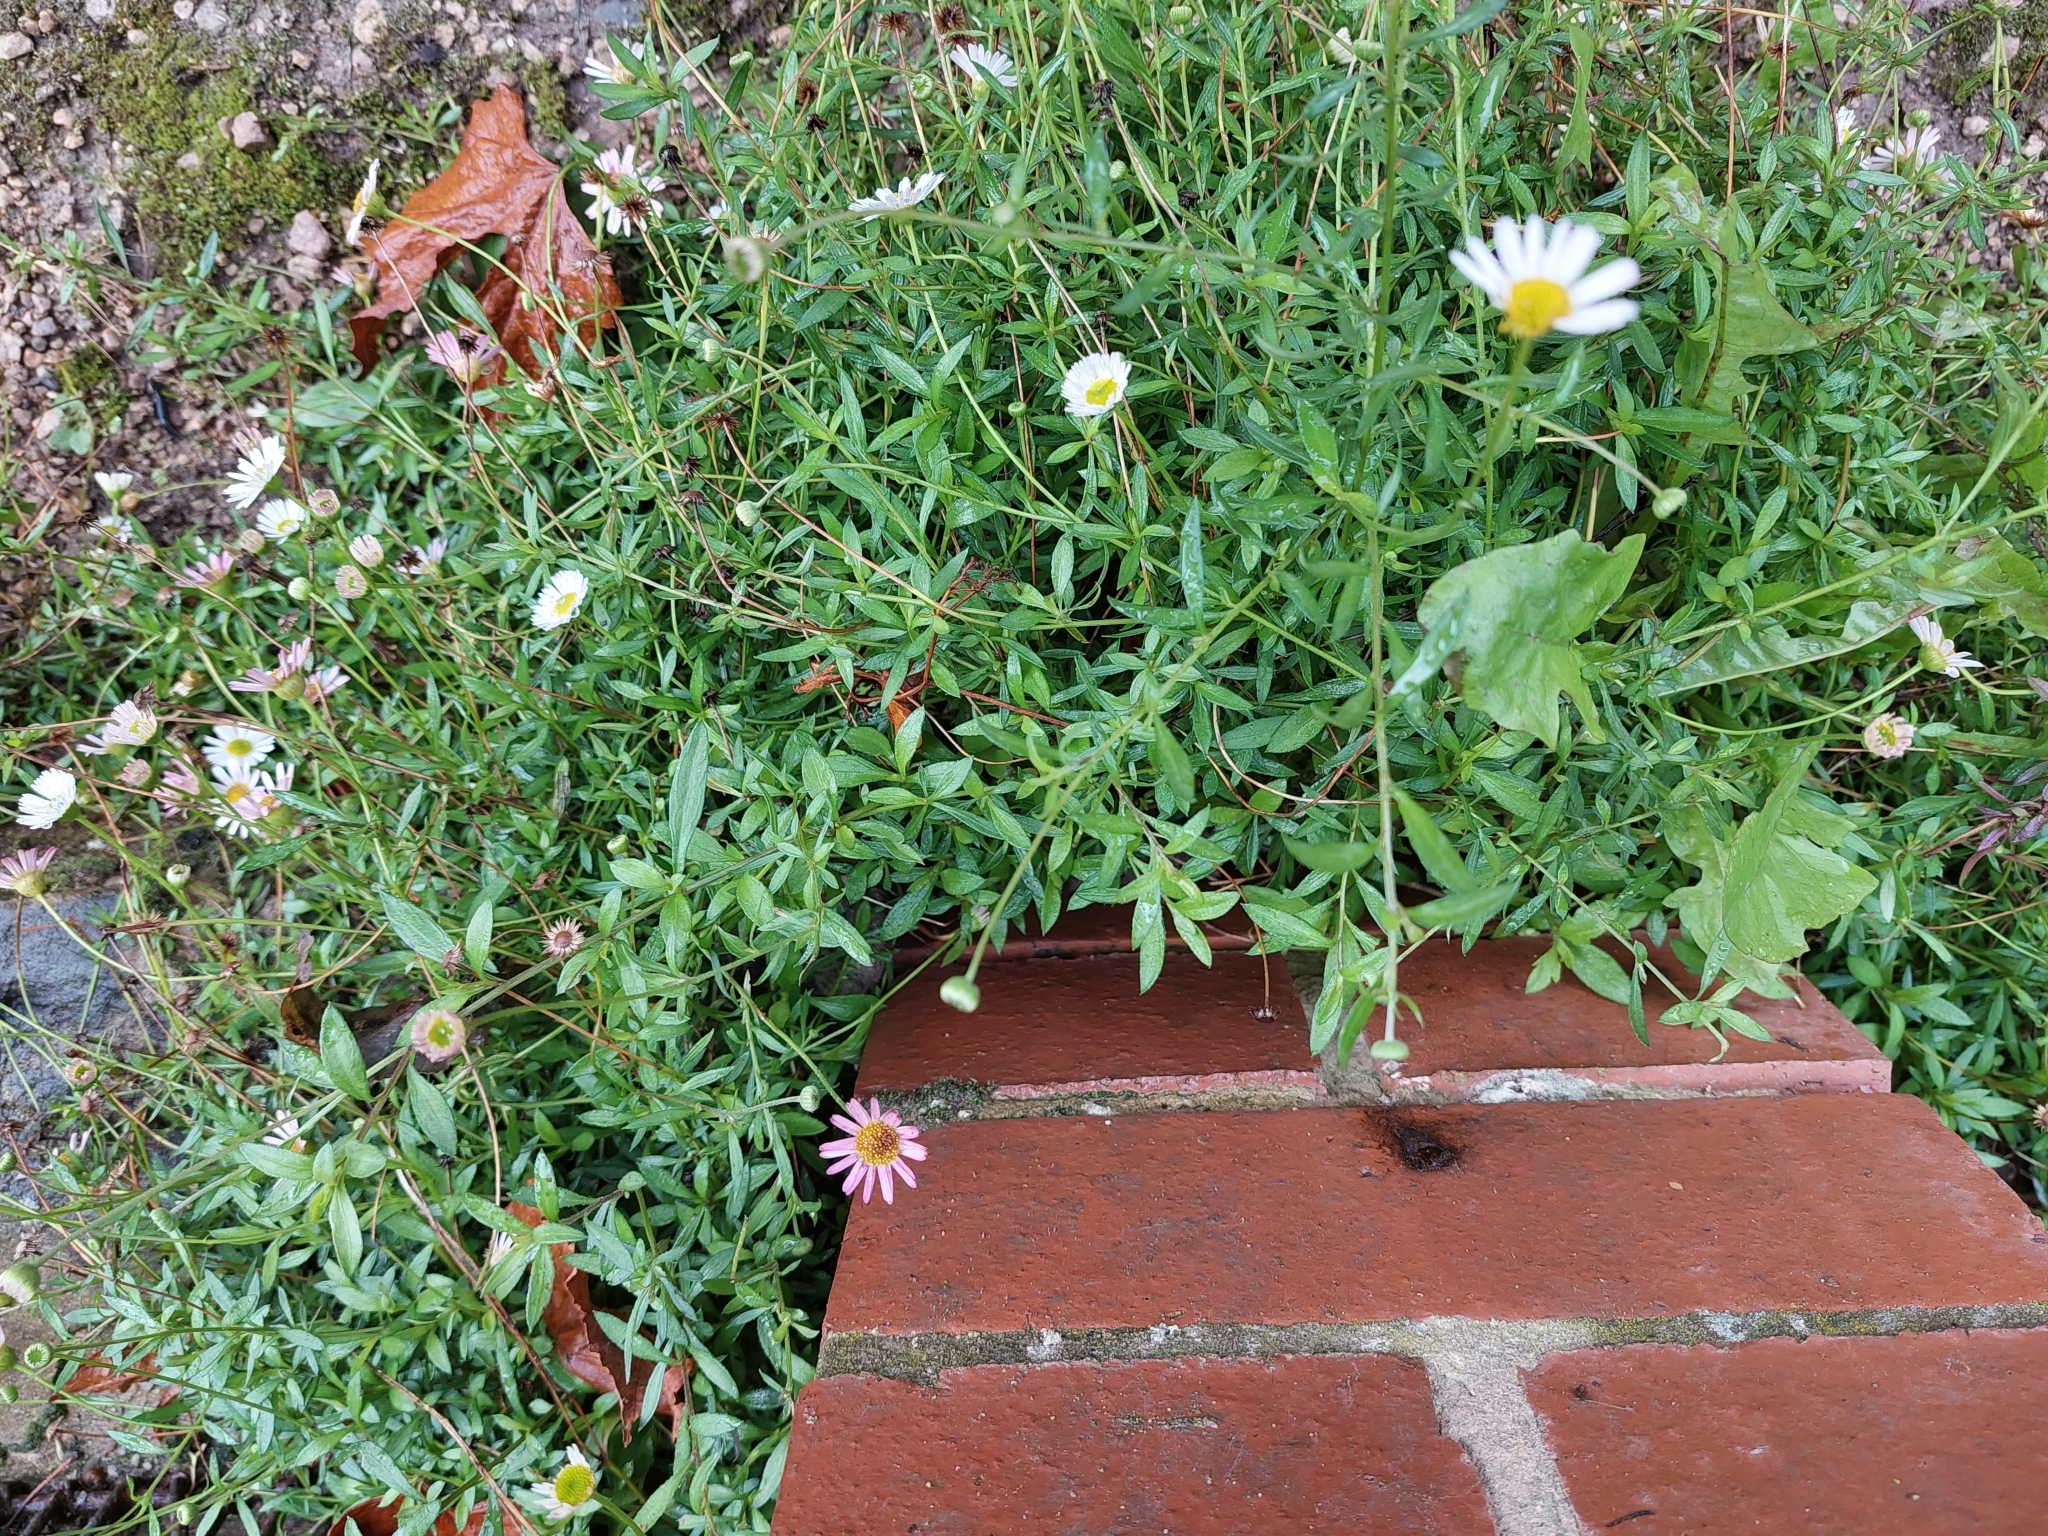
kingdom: Plantae
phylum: Tracheophyta
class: Magnoliopsida
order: Asterales
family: Asteraceae
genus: Erigeron
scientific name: Erigeron karvinskianus
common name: Mexican fleabane
